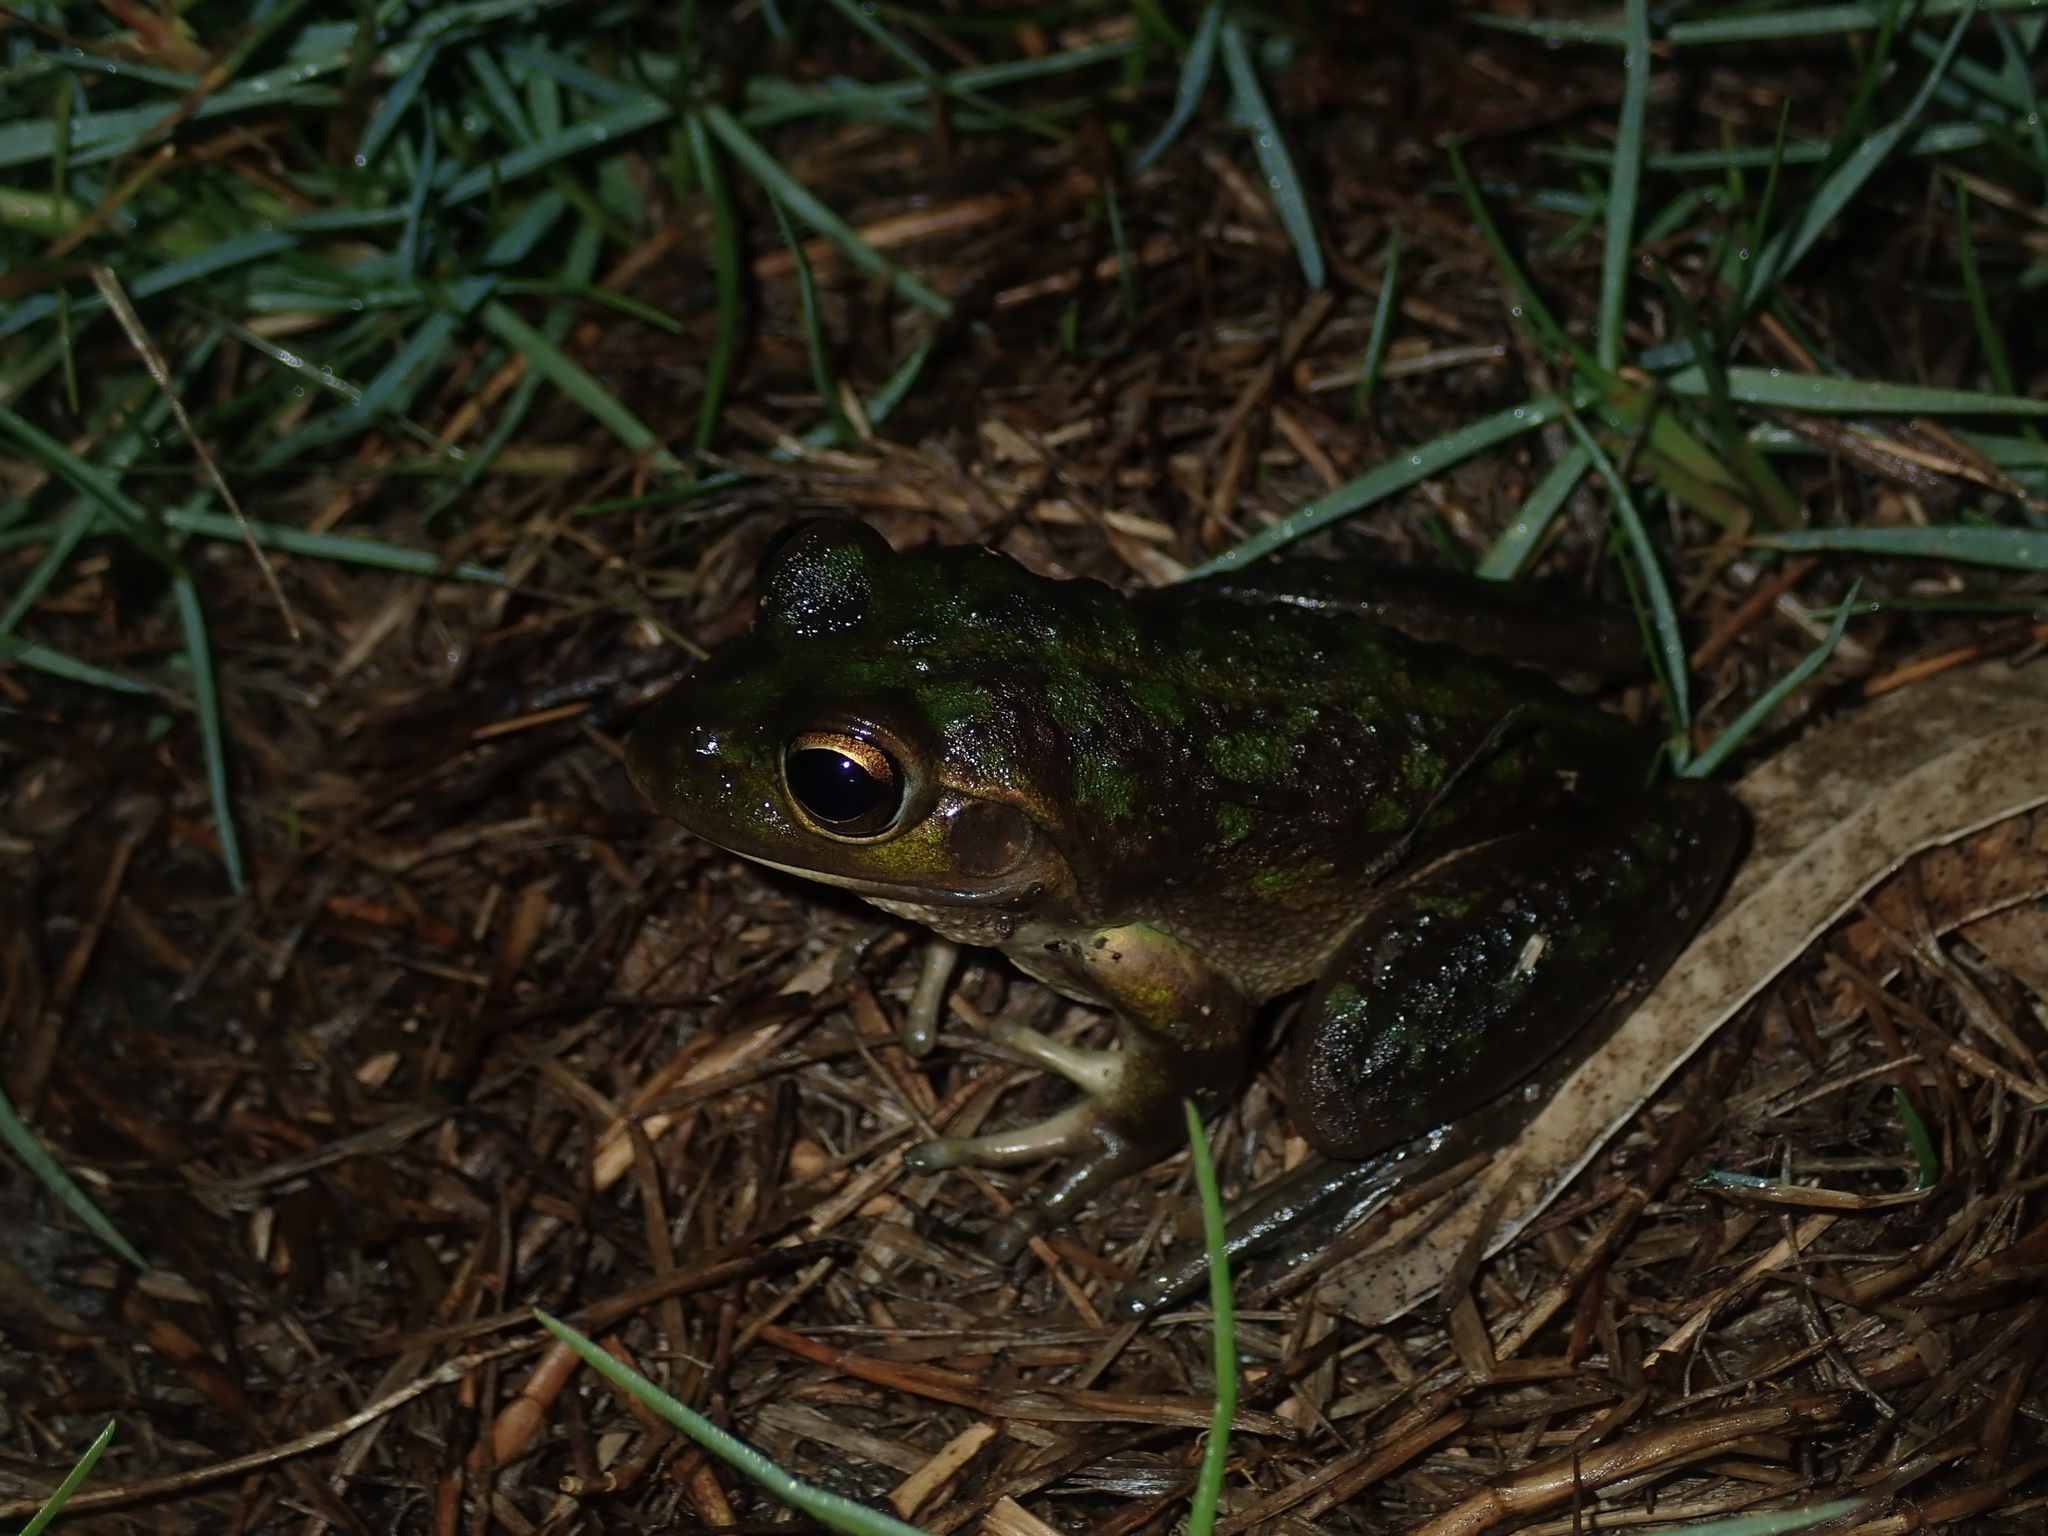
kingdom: Animalia
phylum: Chordata
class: Amphibia
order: Anura
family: Pelodryadidae
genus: Ranoidea
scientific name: Ranoidea moorei
